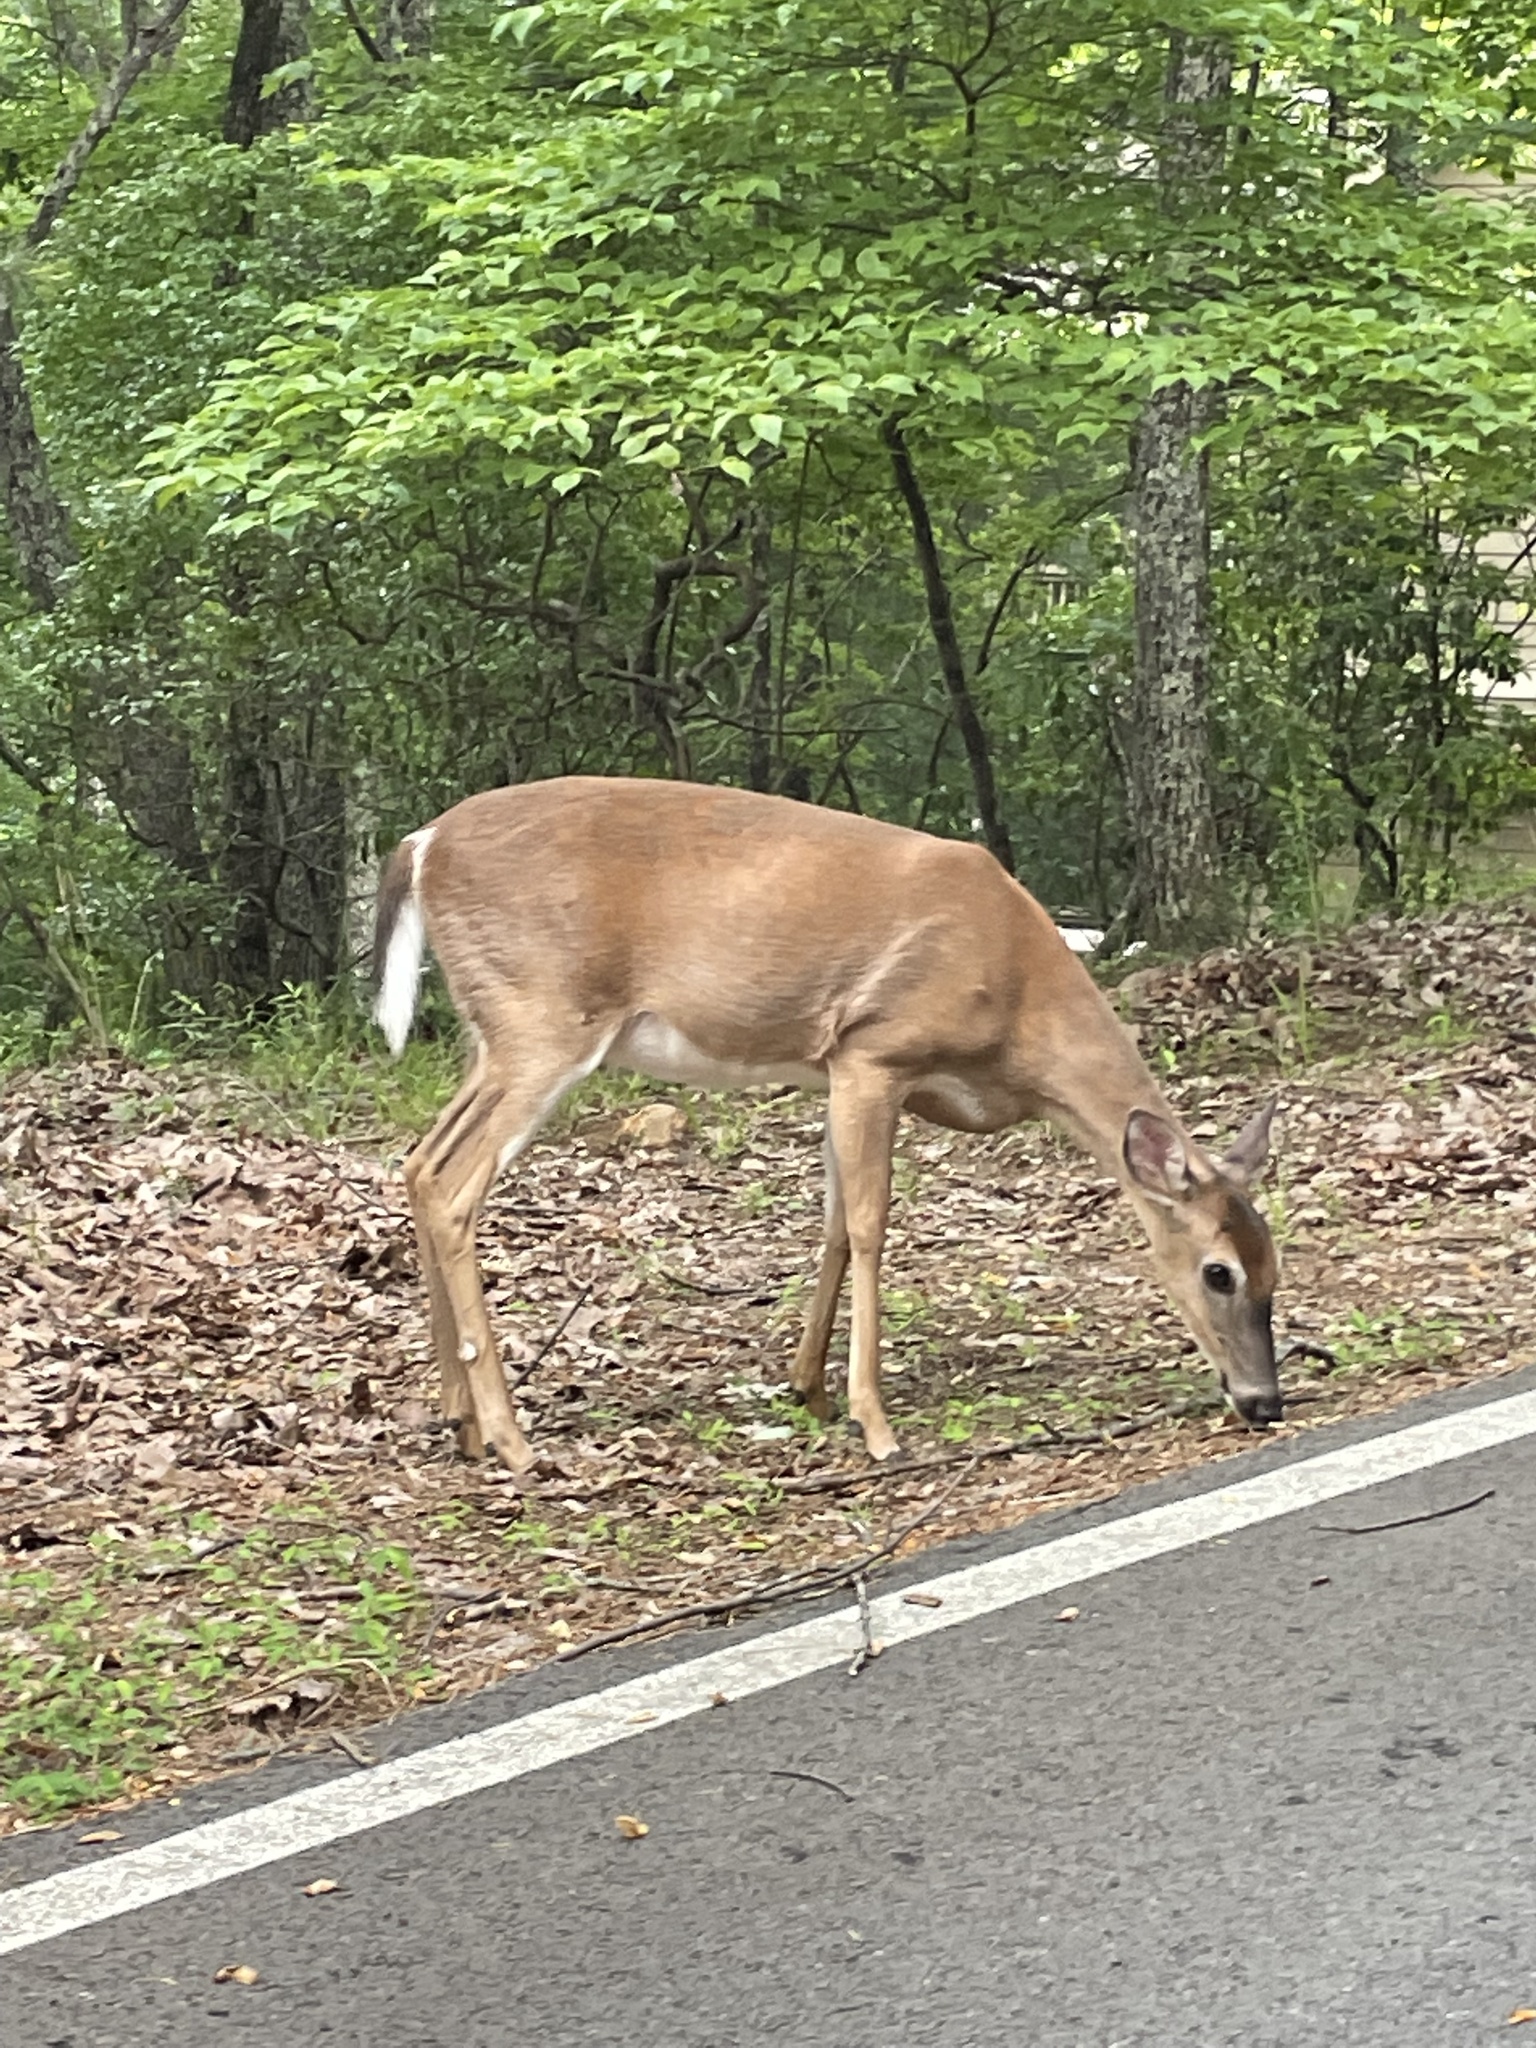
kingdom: Animalia
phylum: Chordata
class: Mammalia
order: Artiodactyla
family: Cervidae
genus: Odocoileus
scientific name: Odocoileus virginianus
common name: White-tailed deer
